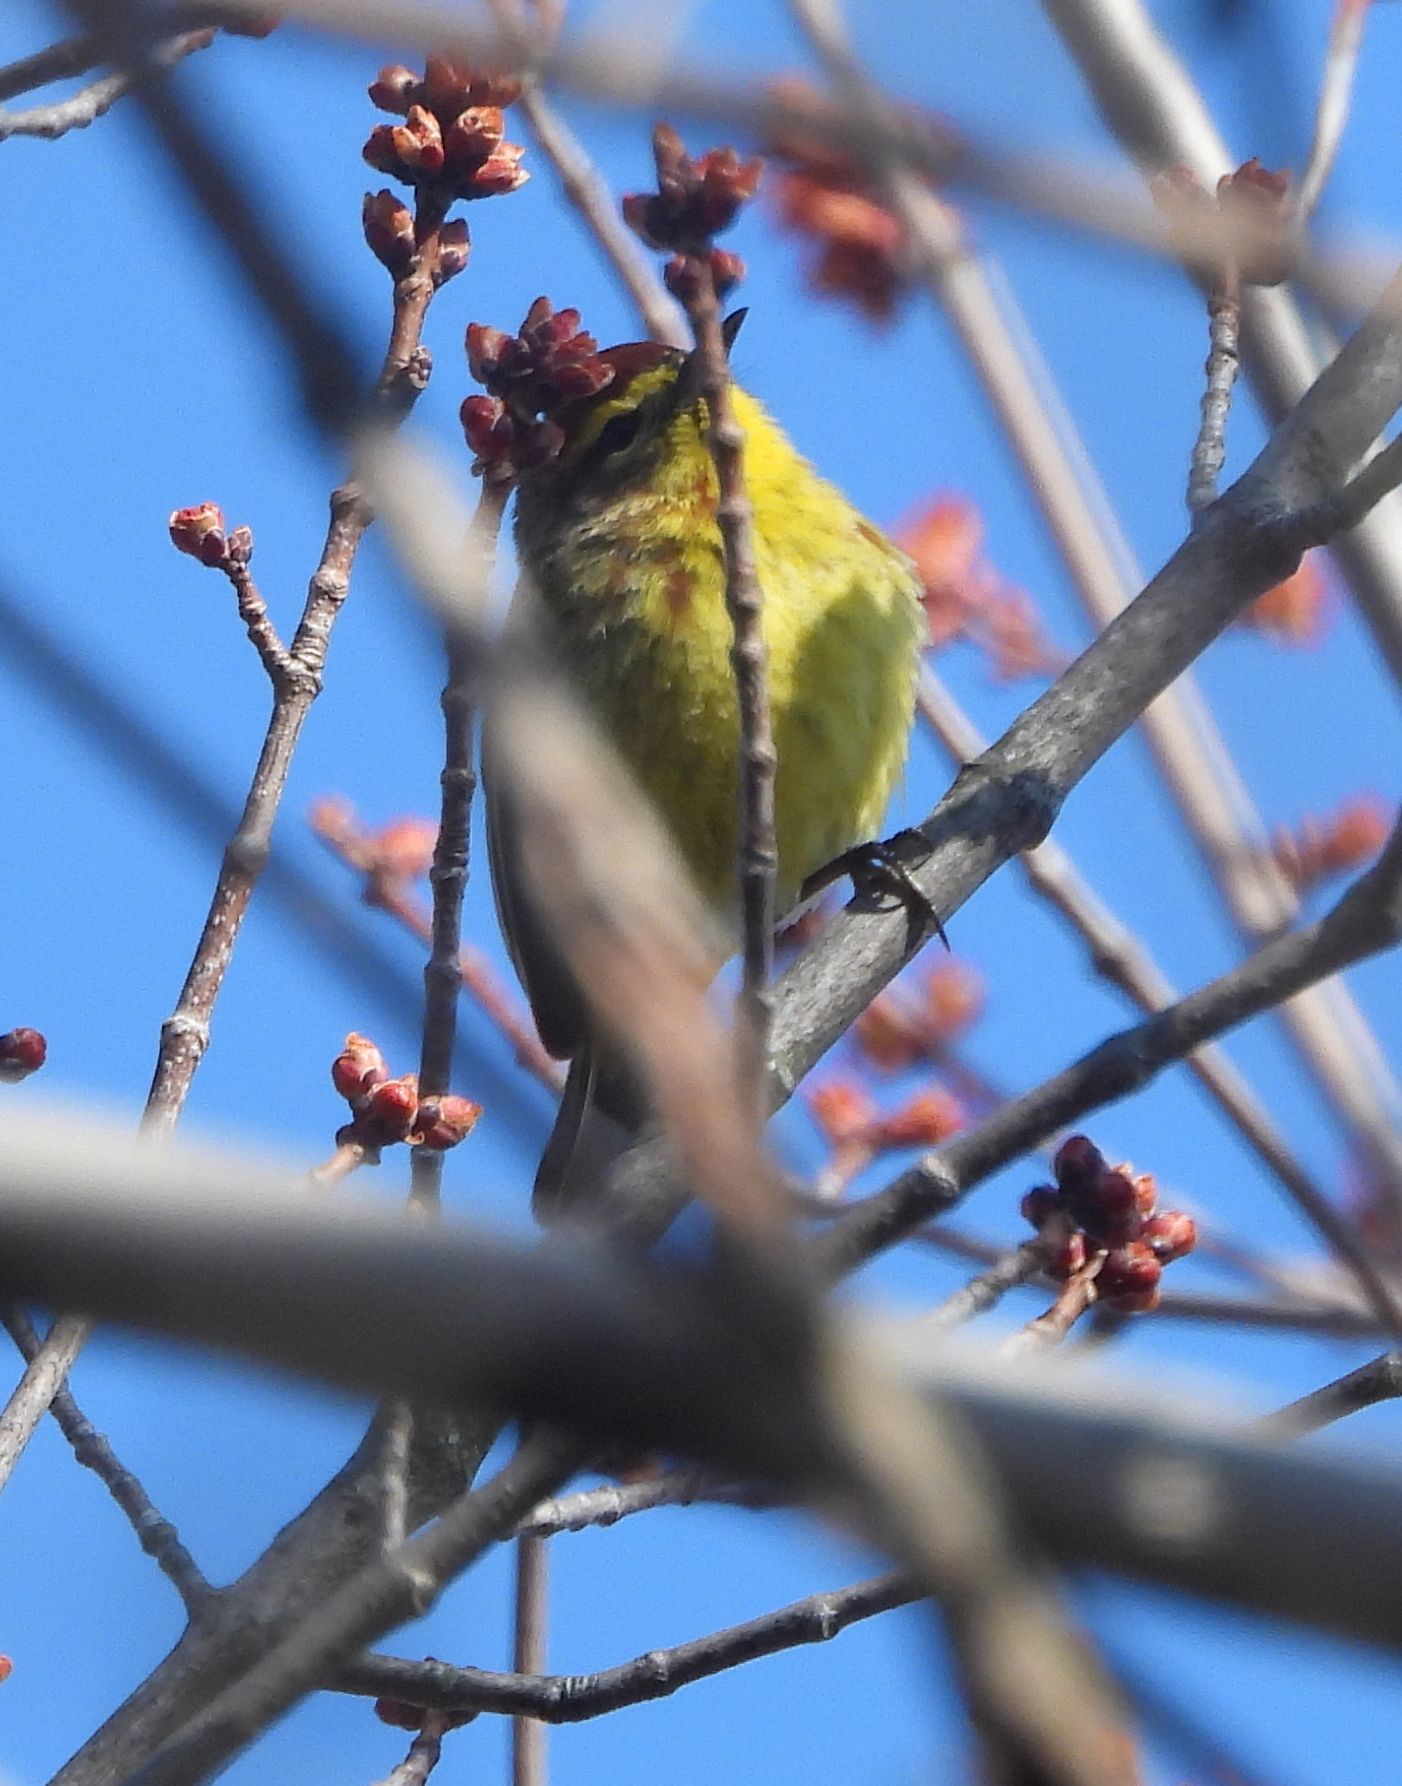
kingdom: Animalia
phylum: Chordata
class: Aves
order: Passeriformes
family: Parulidae
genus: Setophaga
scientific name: Setophaga palmarum
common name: Palm warbler
